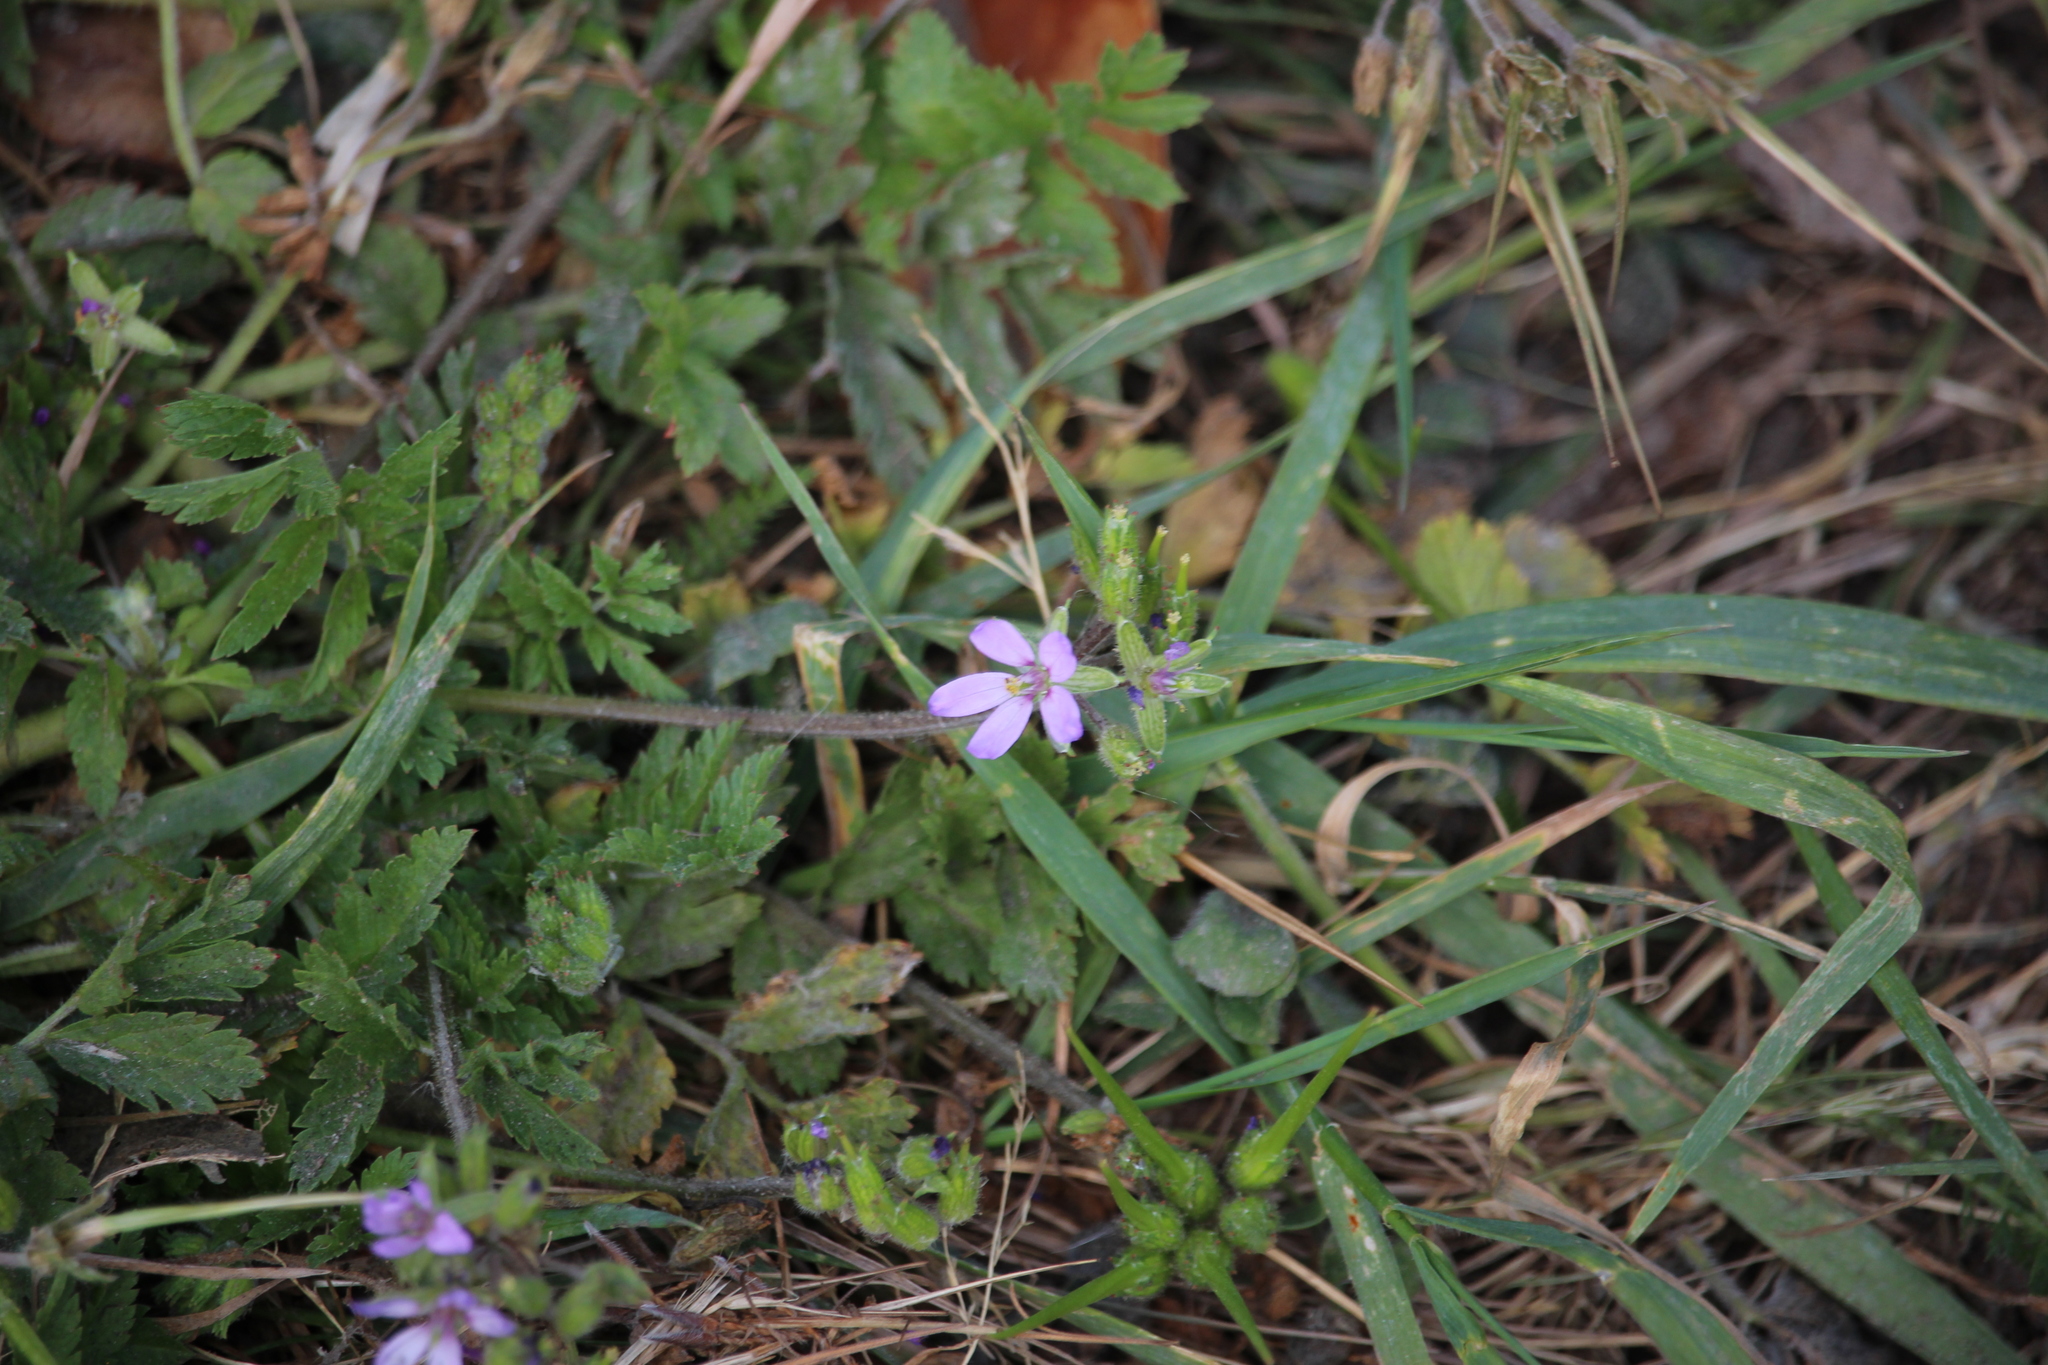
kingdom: Plantae
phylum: Tracheophyta
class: Magnoliopsida
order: Geraniales
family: Geraniaceae
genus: Erodium
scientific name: Erodium moschatum
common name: Musk stork's-bill
